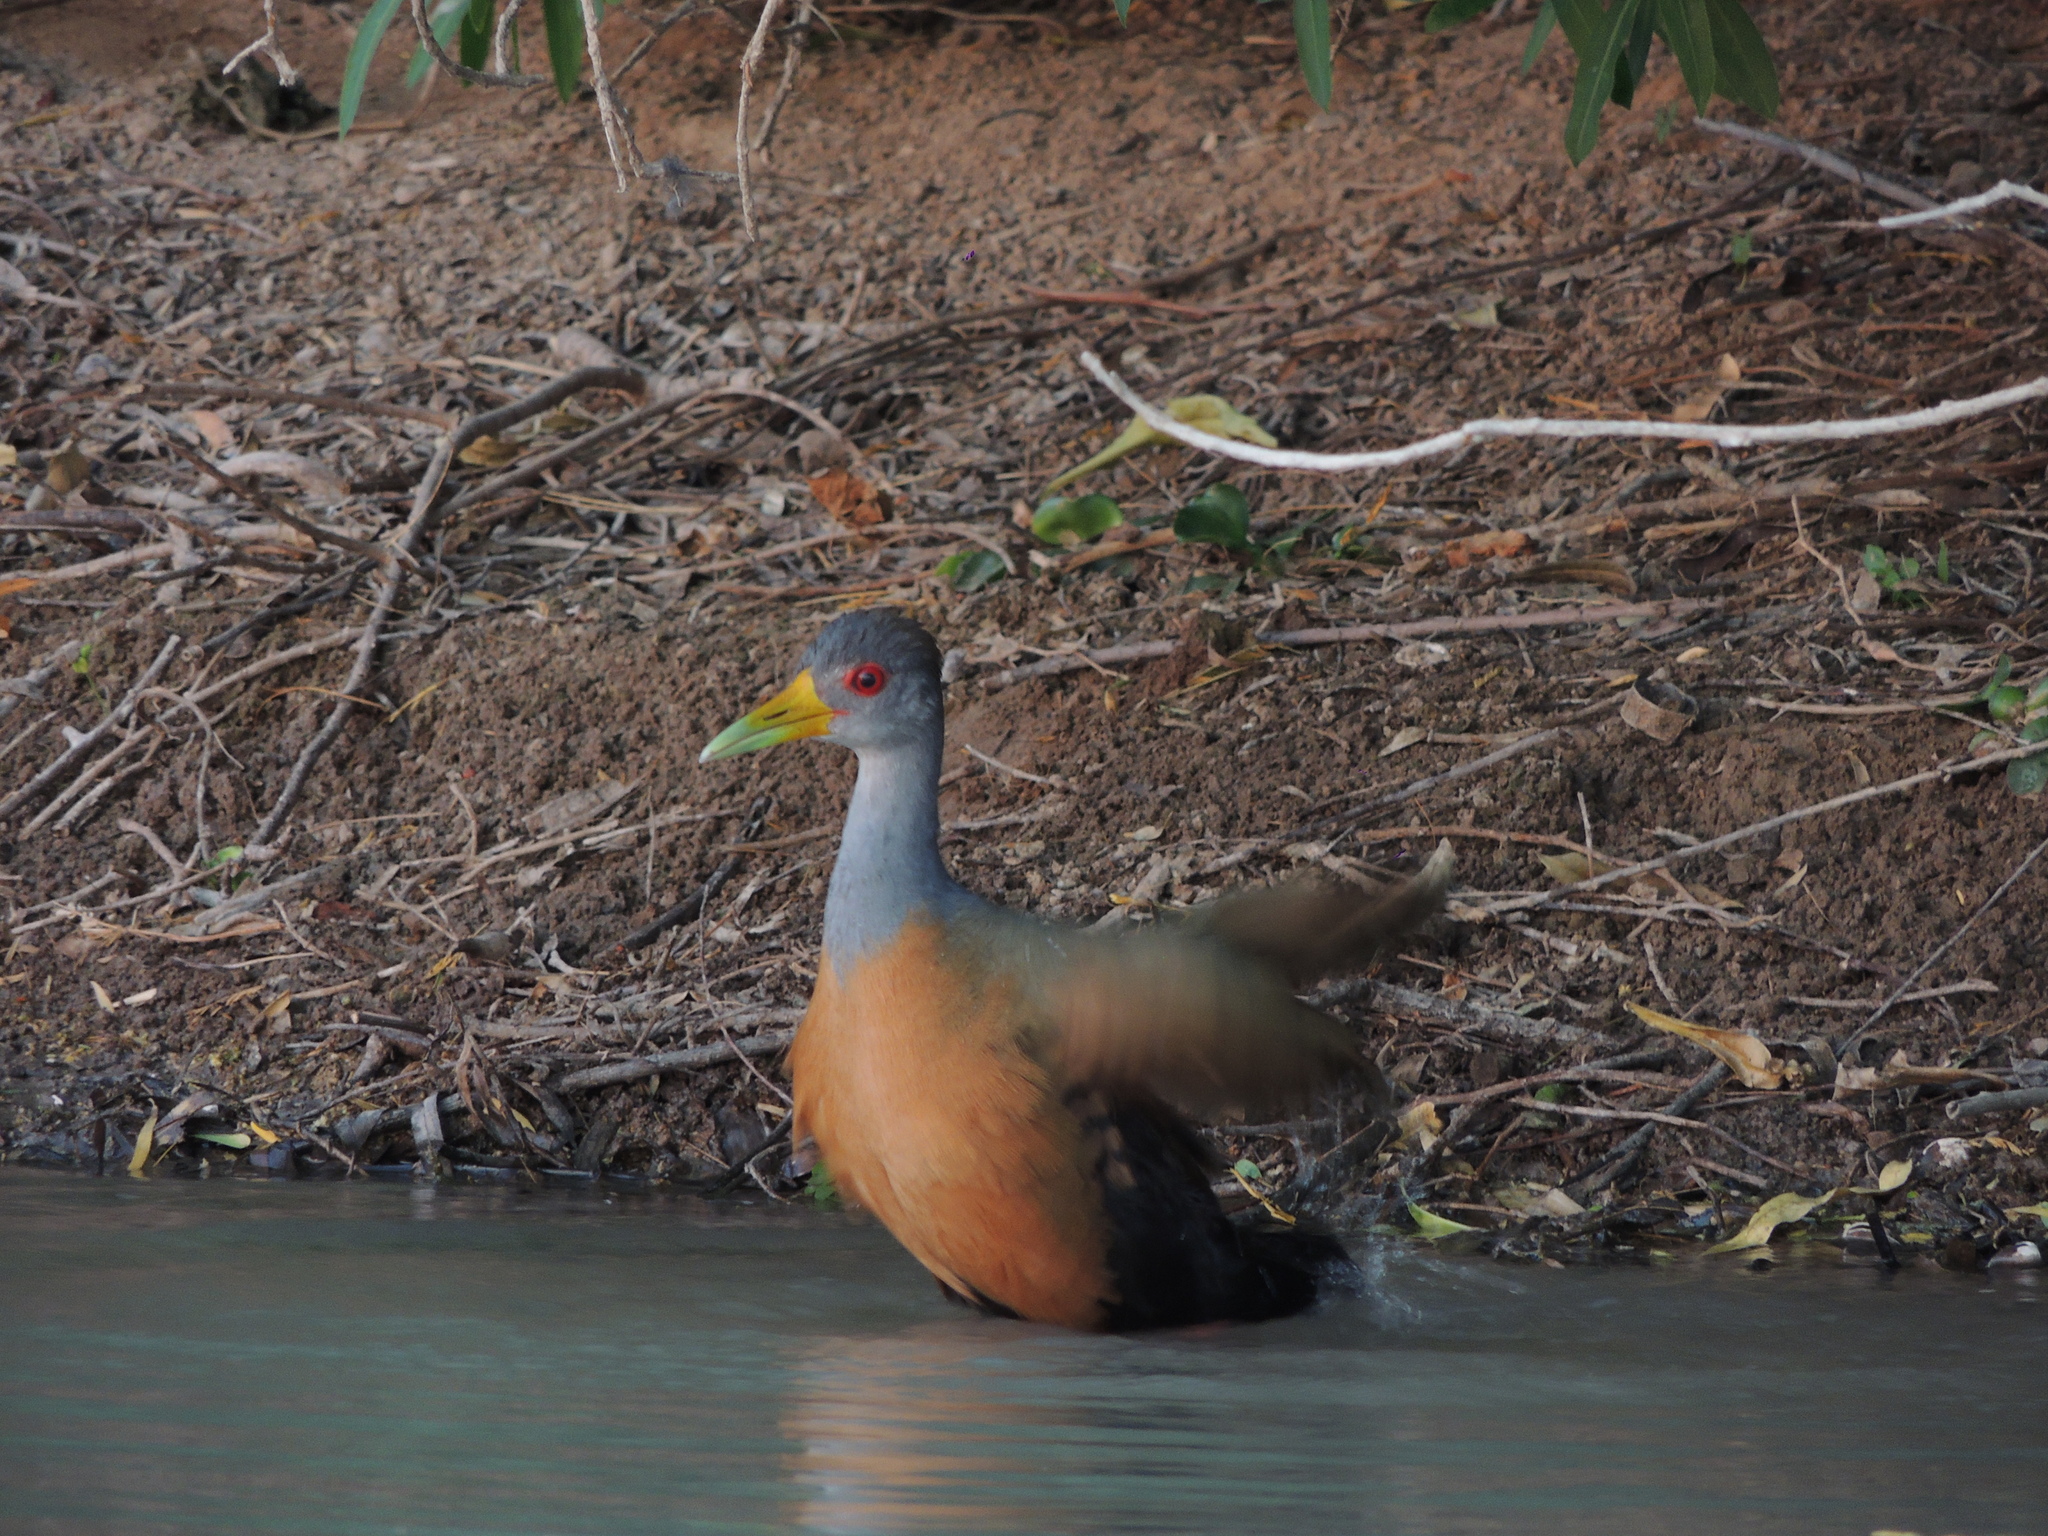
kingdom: Animalia
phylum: Chordata
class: Aves
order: Gruiformes
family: Rallidae
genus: Aramides
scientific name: Aramides cajanea
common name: Gray-necked wood-rail
